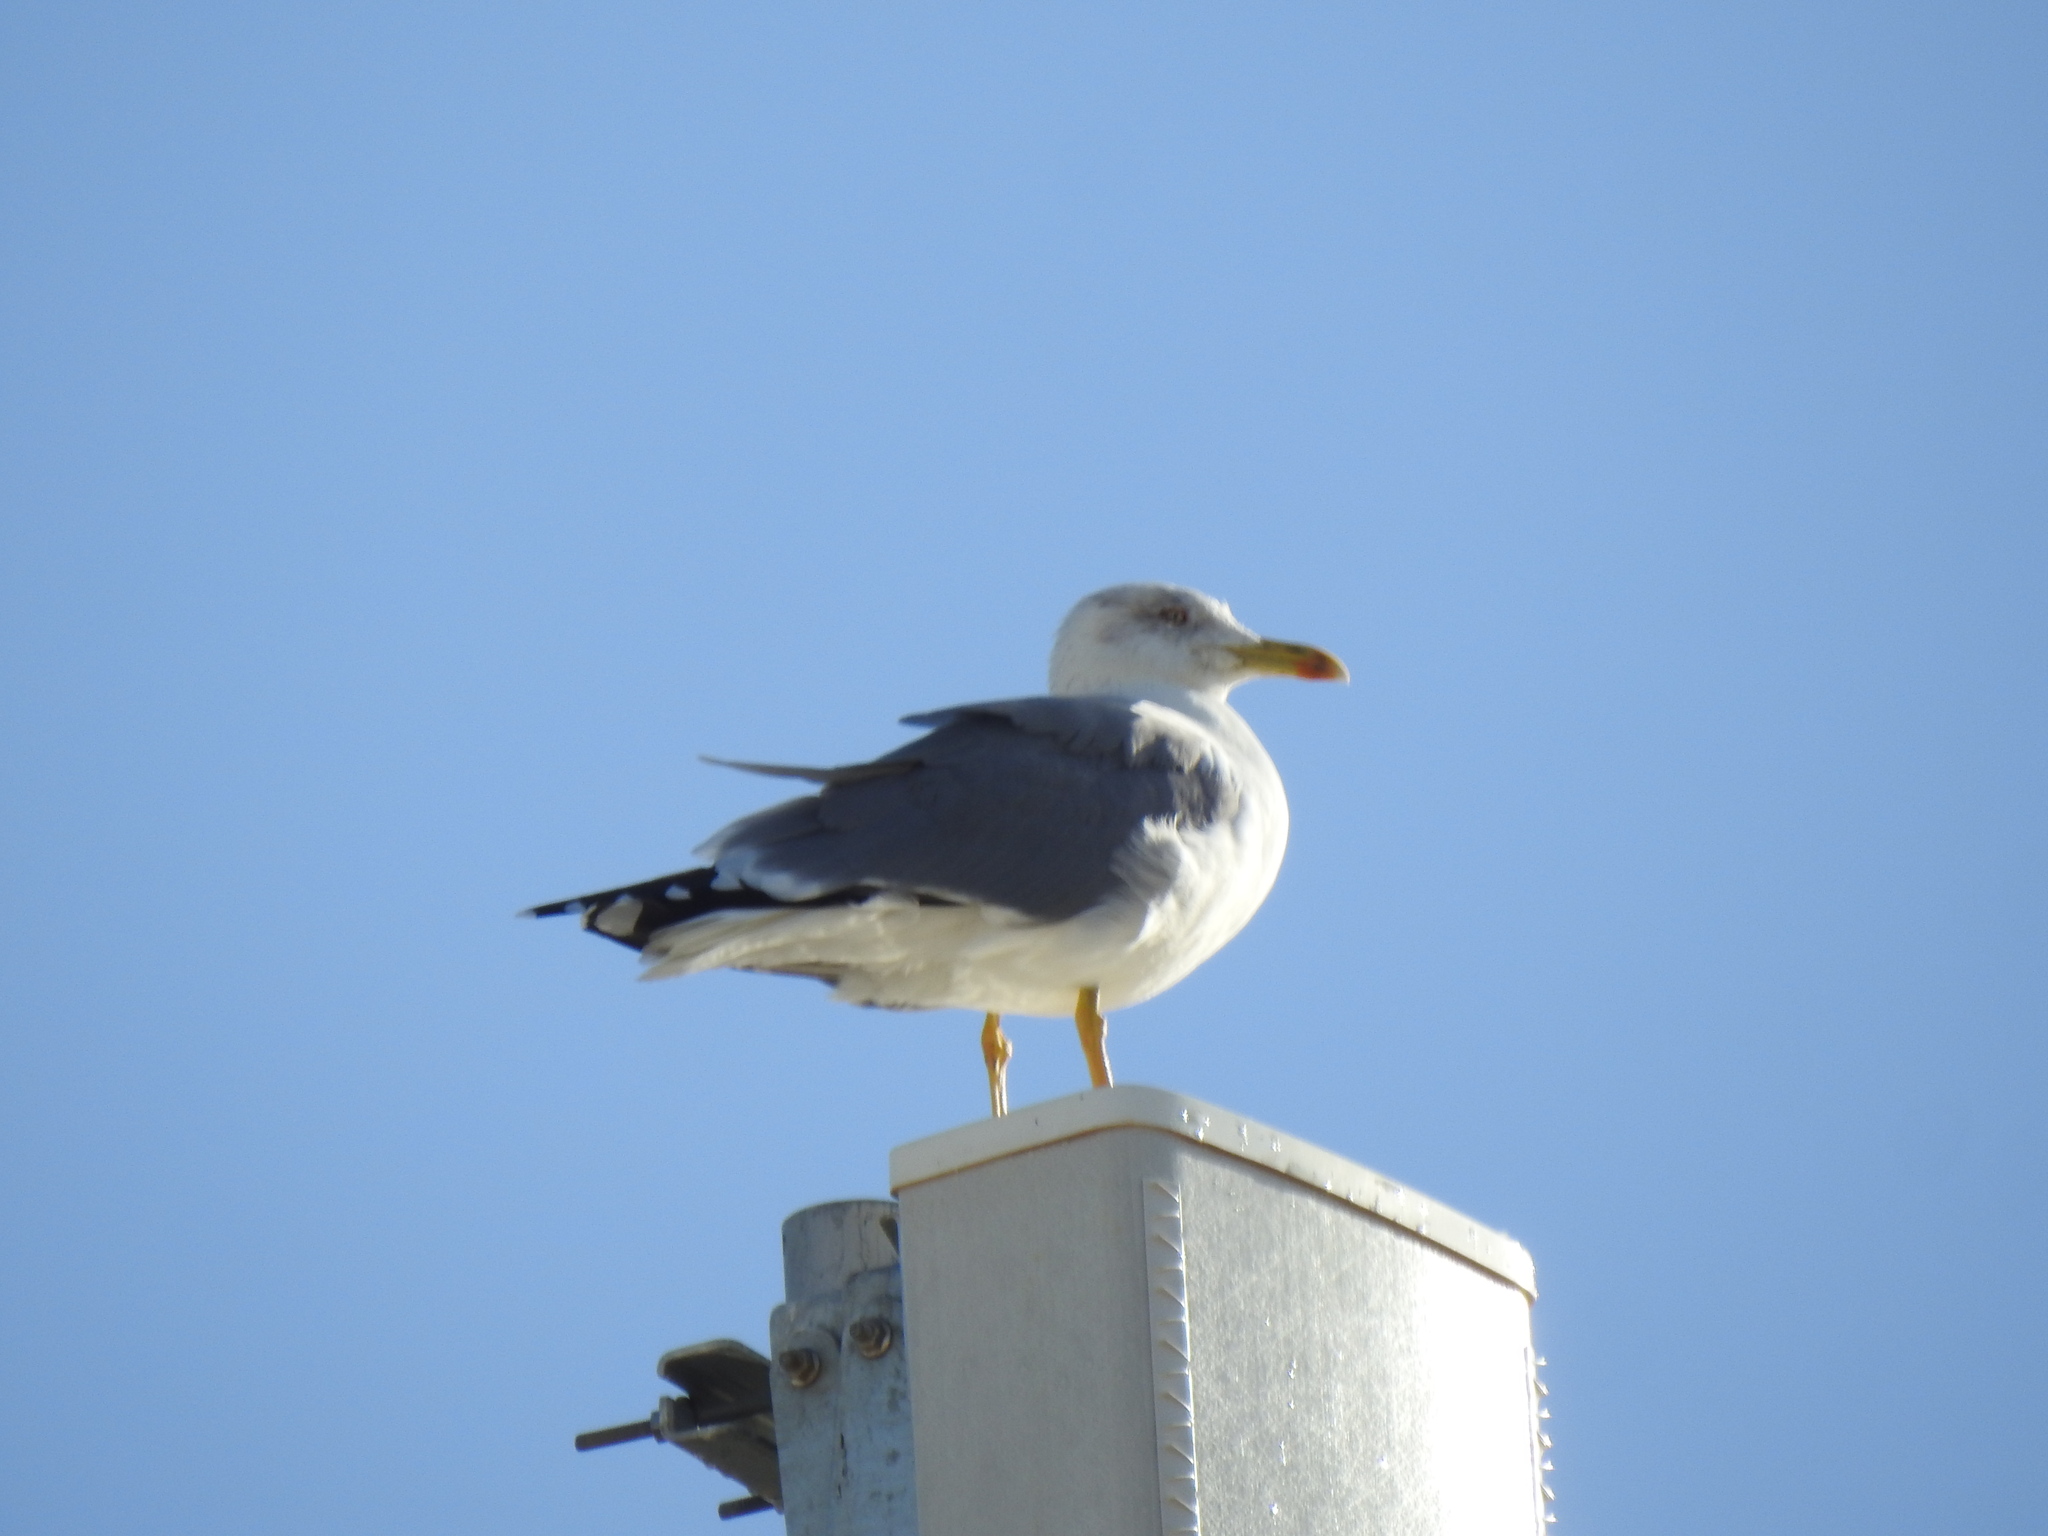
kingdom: Animalia
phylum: Chordata
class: Aves
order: Charadriiformes
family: Laridae
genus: Larus
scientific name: Larus michahellis
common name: Yellow-legged gull
